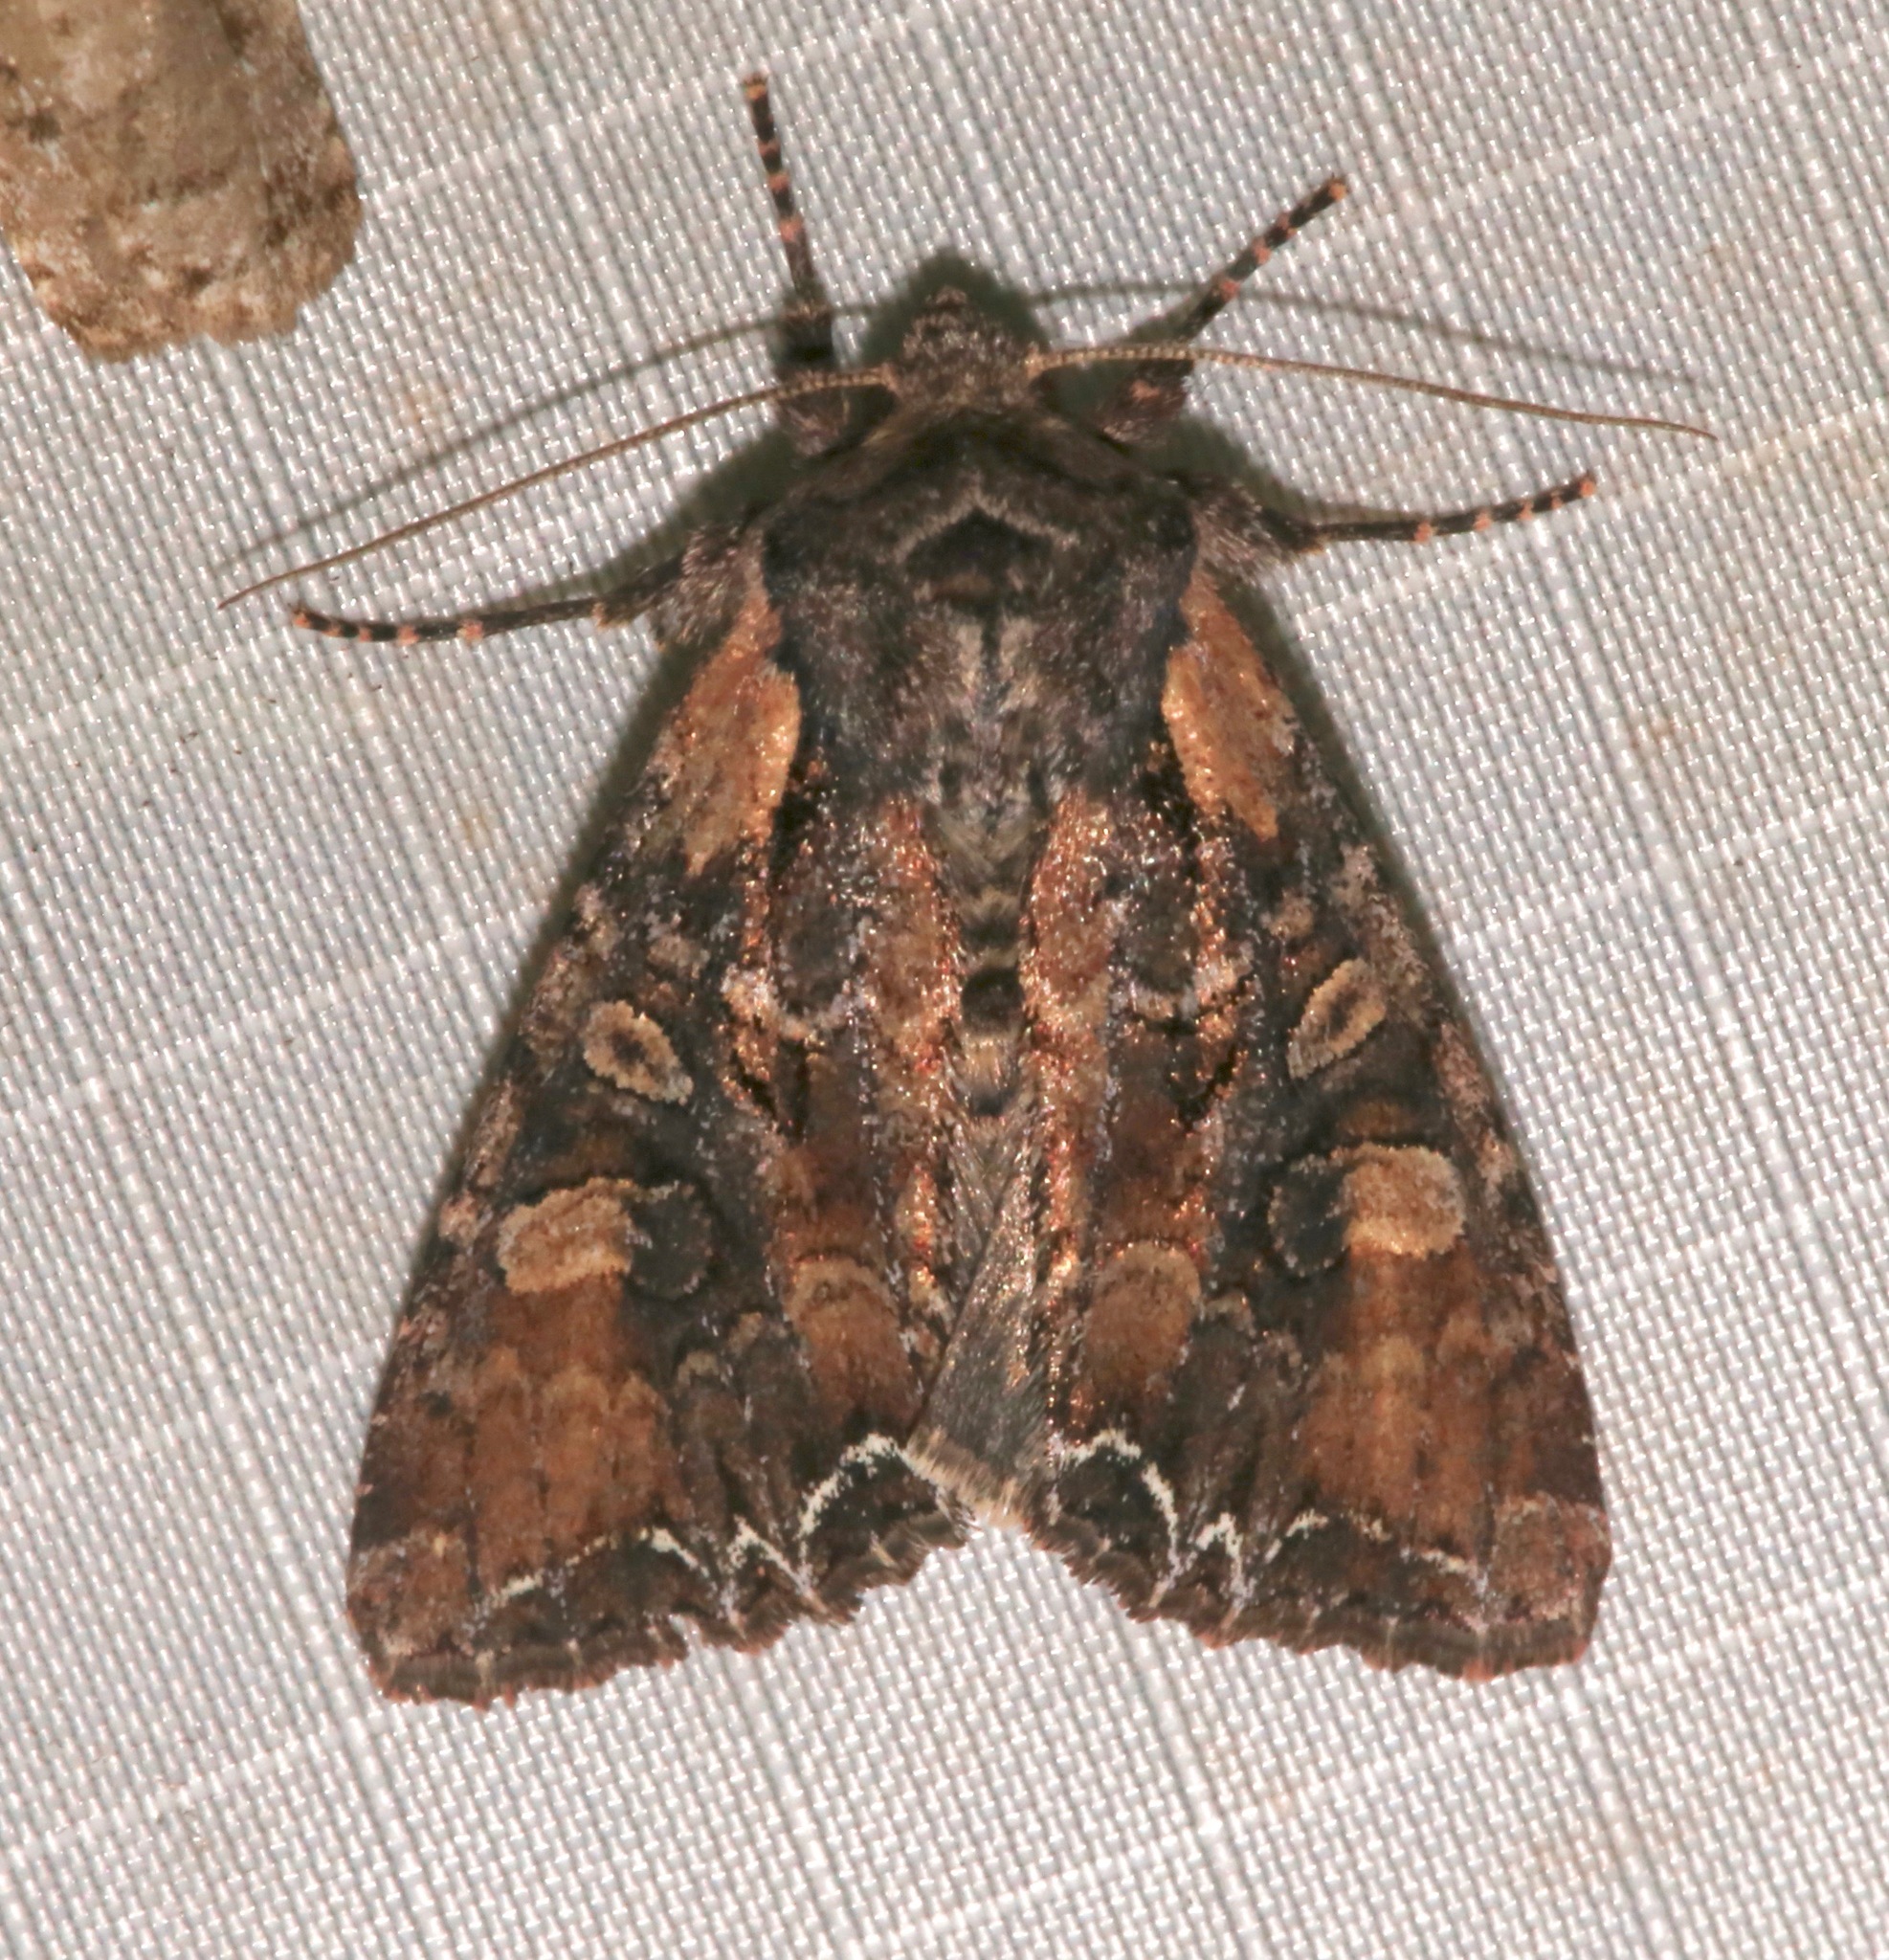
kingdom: Animalia
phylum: Arthropoda
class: Insecta
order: Lepidoptera
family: Noctuidae
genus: Lacanobia
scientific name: Lacanobia nevadae
